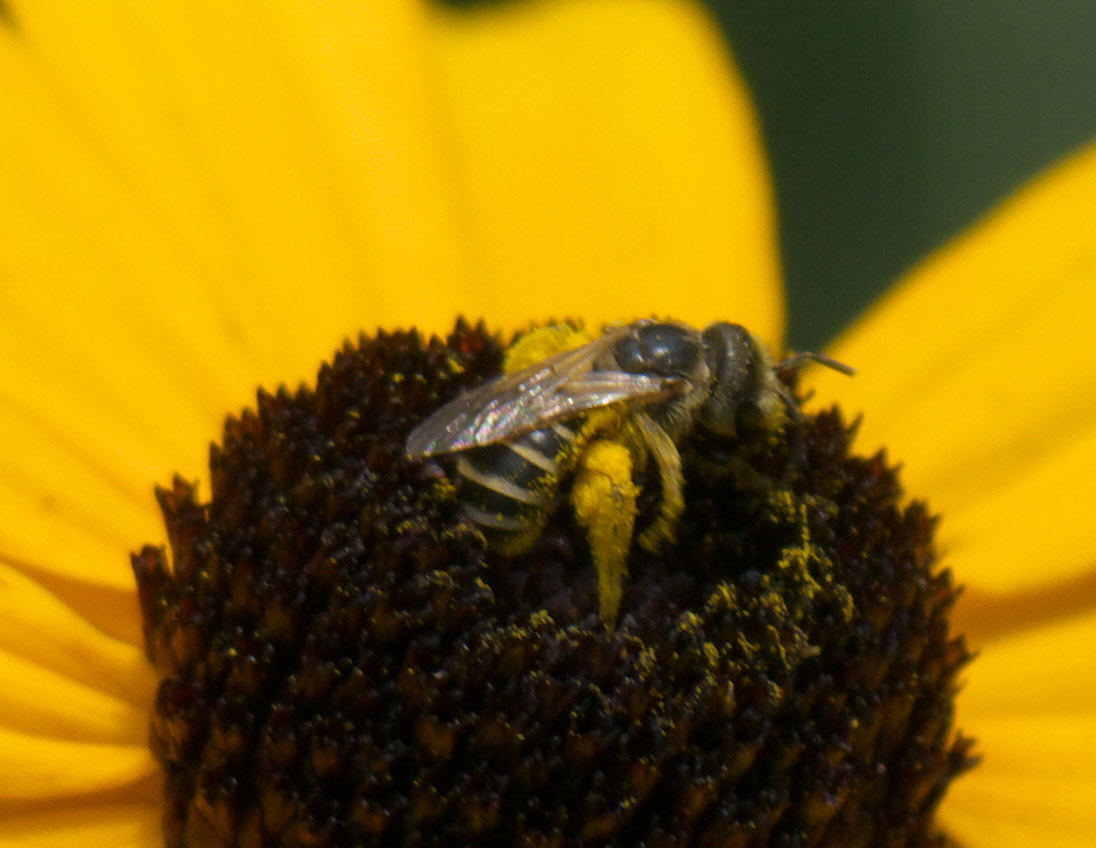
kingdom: Animalia
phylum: Arthropoda
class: Insecta
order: Hymenoptera
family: Halictidae
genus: Halictus
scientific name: Halictus ligatus
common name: Ligated furrow bee
